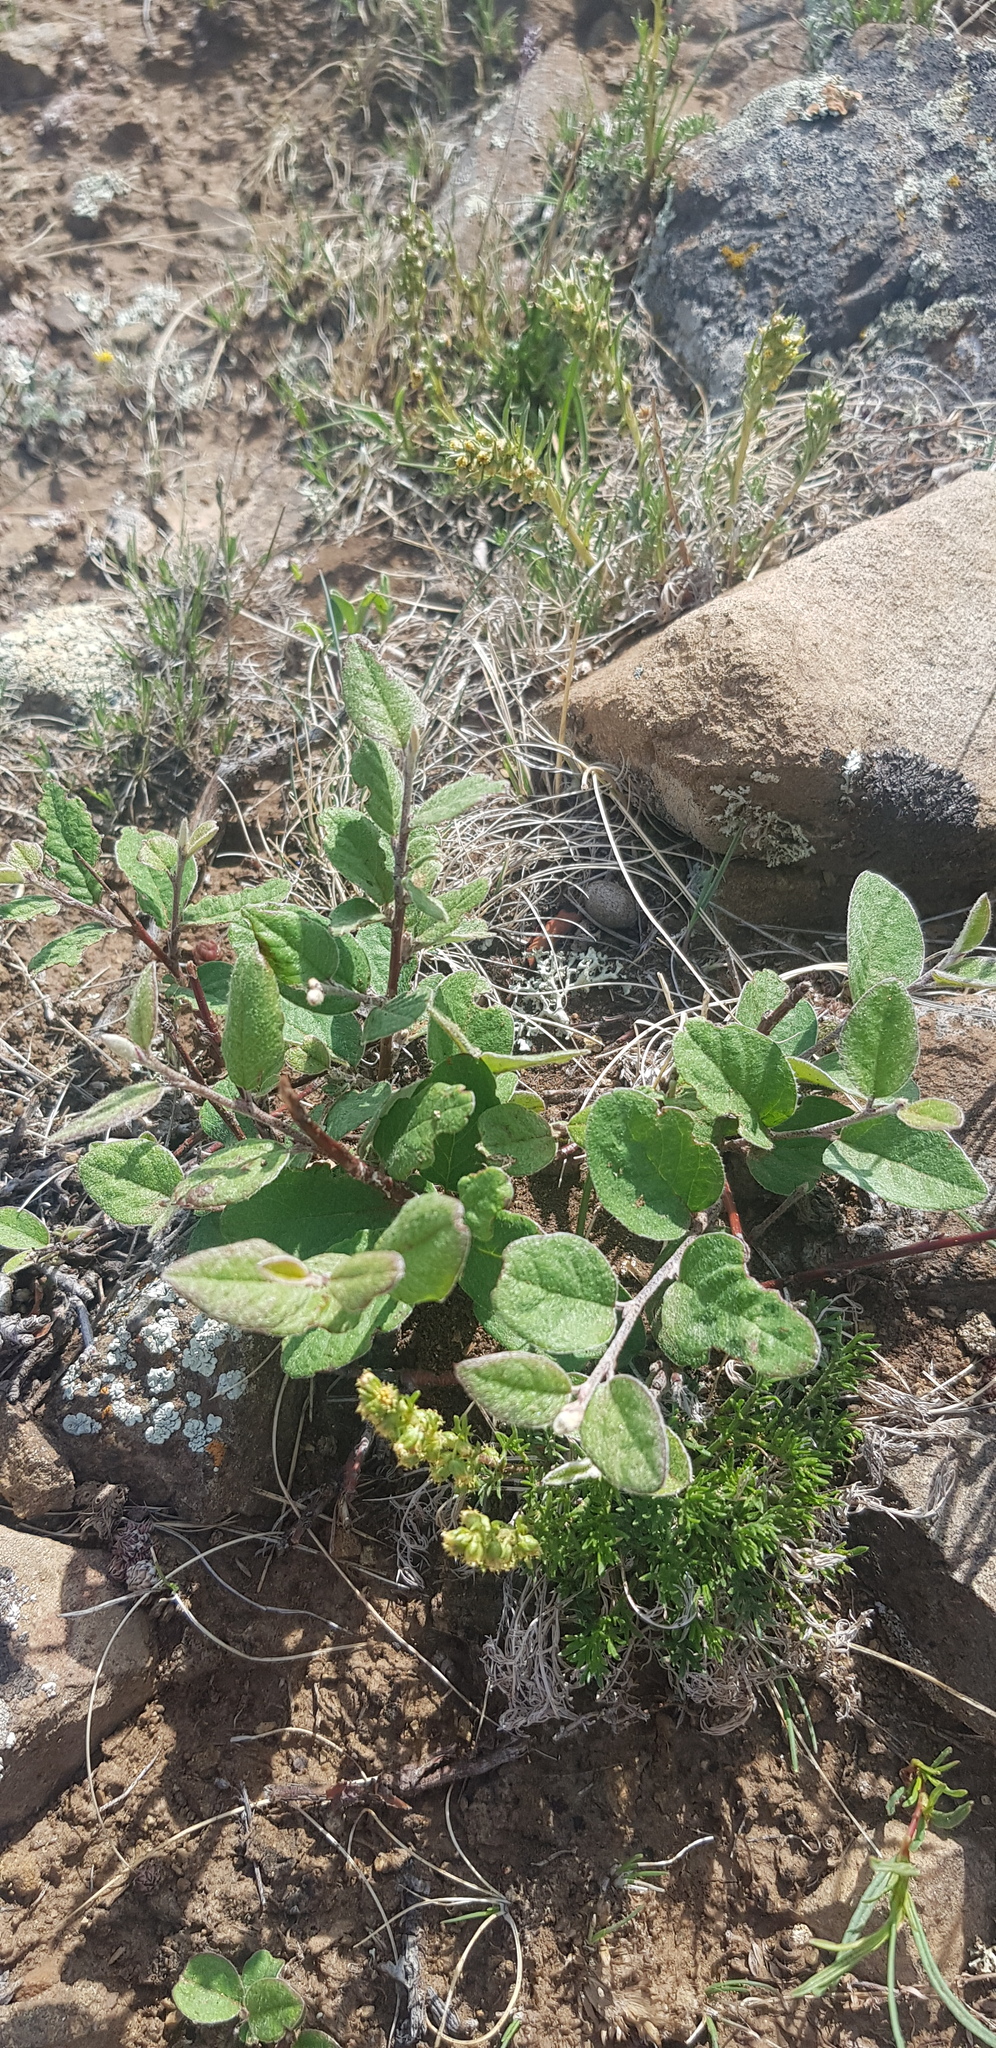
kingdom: Plantae
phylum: Tracheophyta
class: Magnoliopsida
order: Rosales
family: Rosaceae
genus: Cotoneaster
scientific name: Cotoneaster melanocarpus
